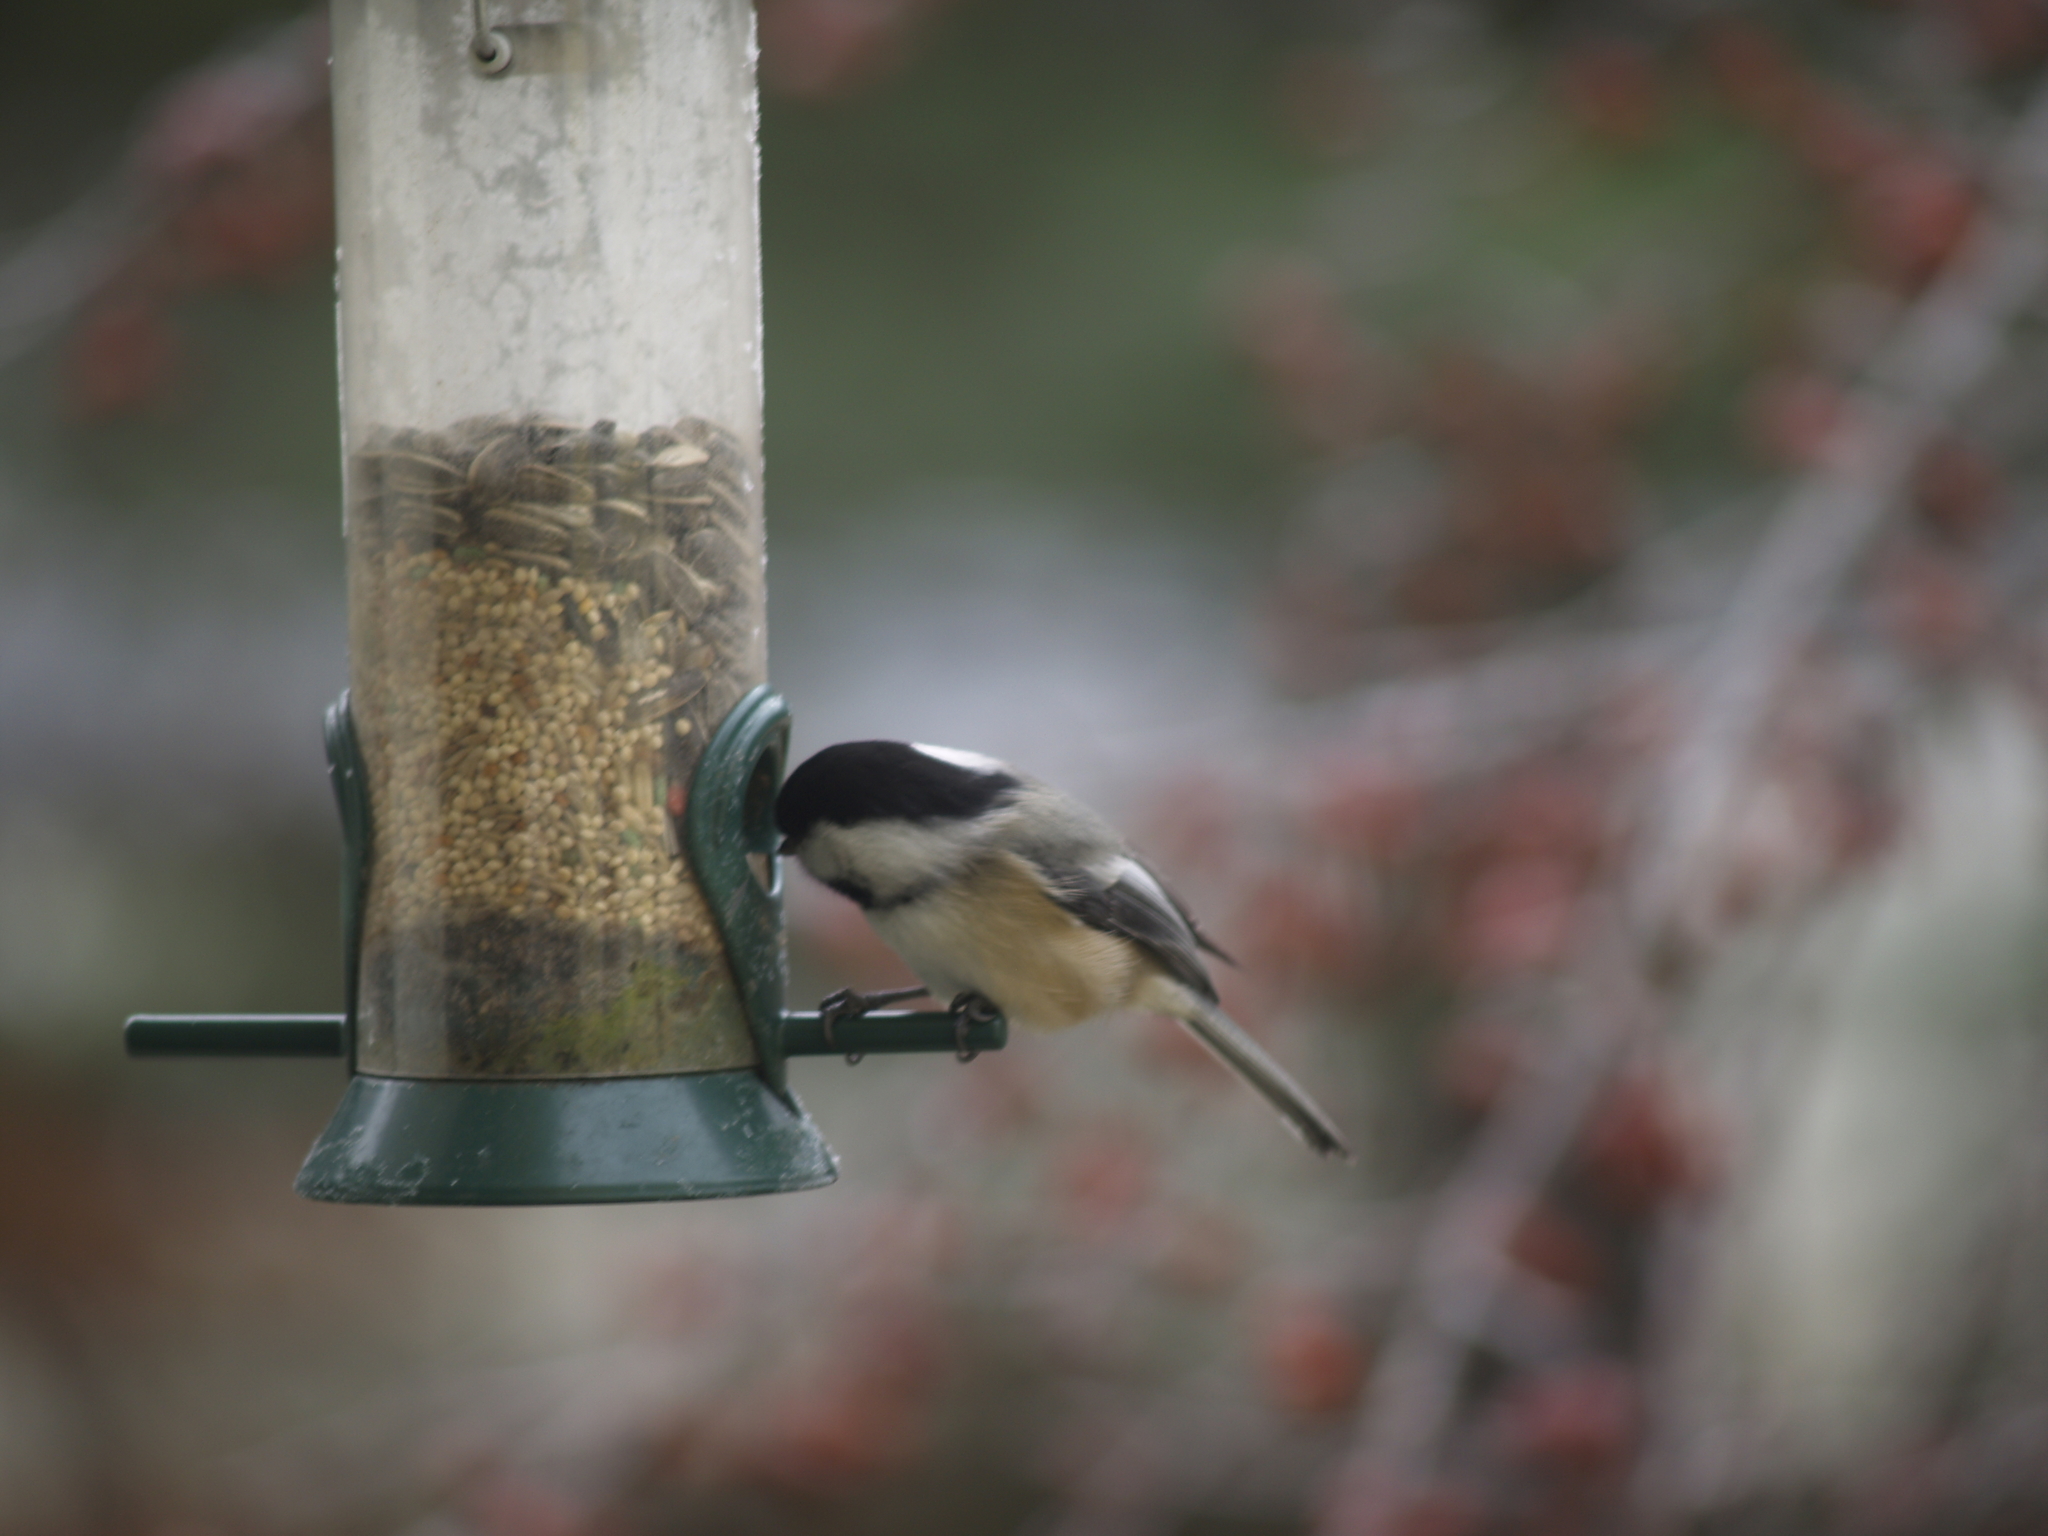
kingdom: Animalia
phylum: Chordata
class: Aves
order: Passeriformes
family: Paridae
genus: Poecile
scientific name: Poecile atricapillus
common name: Black-capped chickadee
